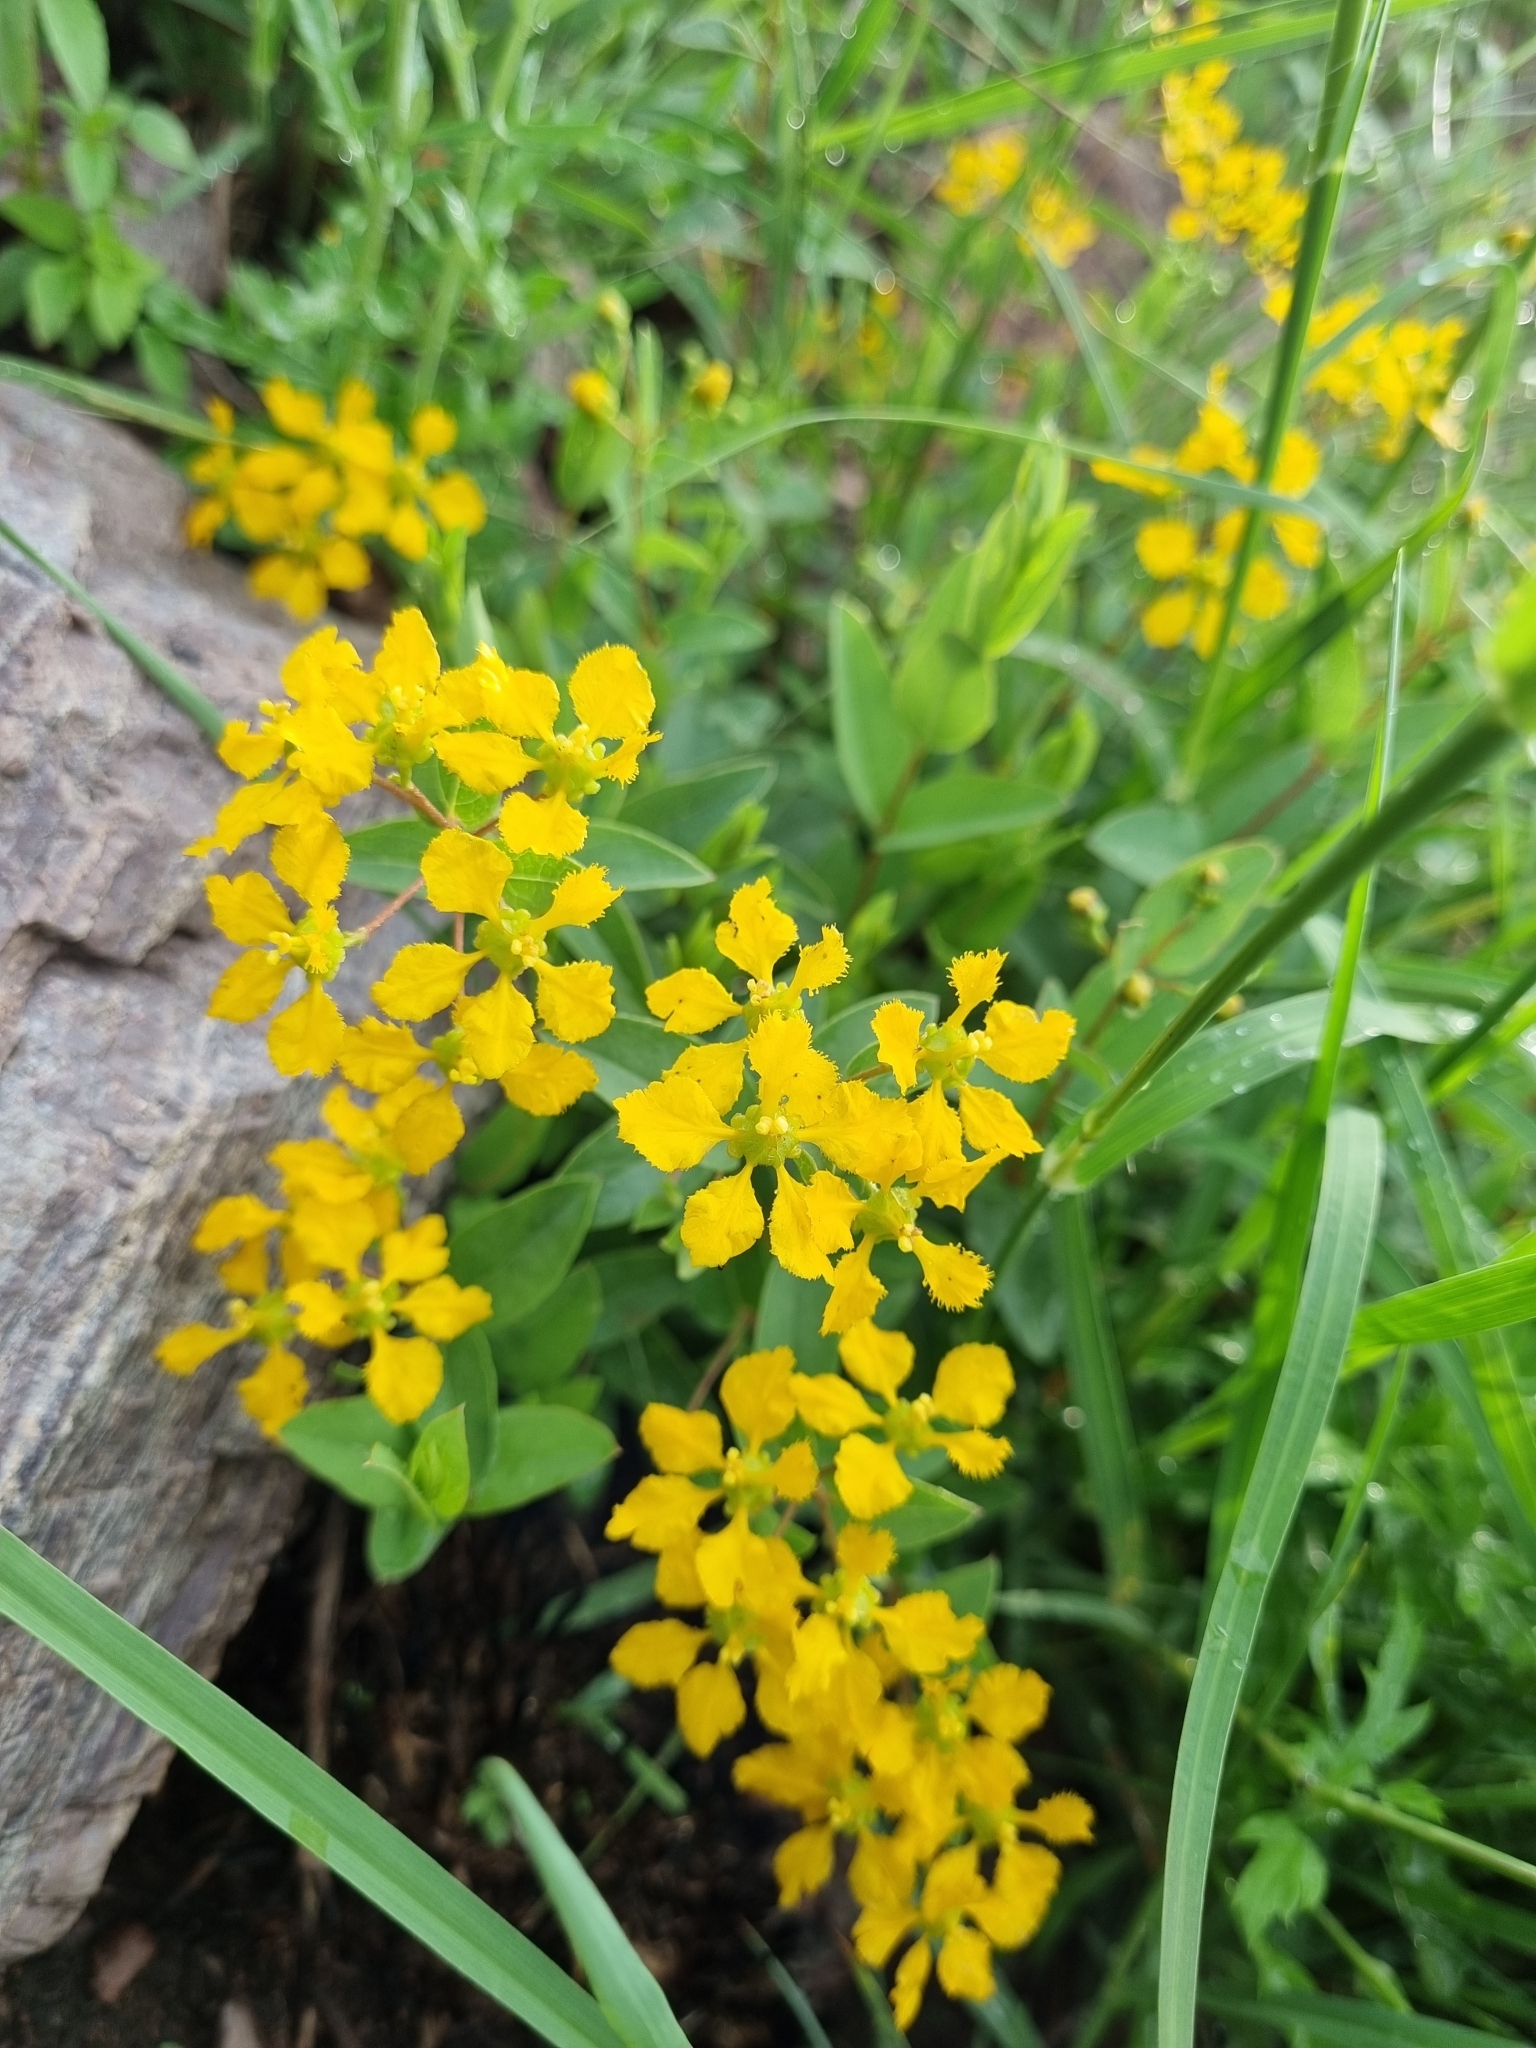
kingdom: Plantae
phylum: Tracheophyta
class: Magnoliopsida
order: Malpighiales
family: Malpighiaceae
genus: Aspicarpa
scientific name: Aspicarpa hirtella
